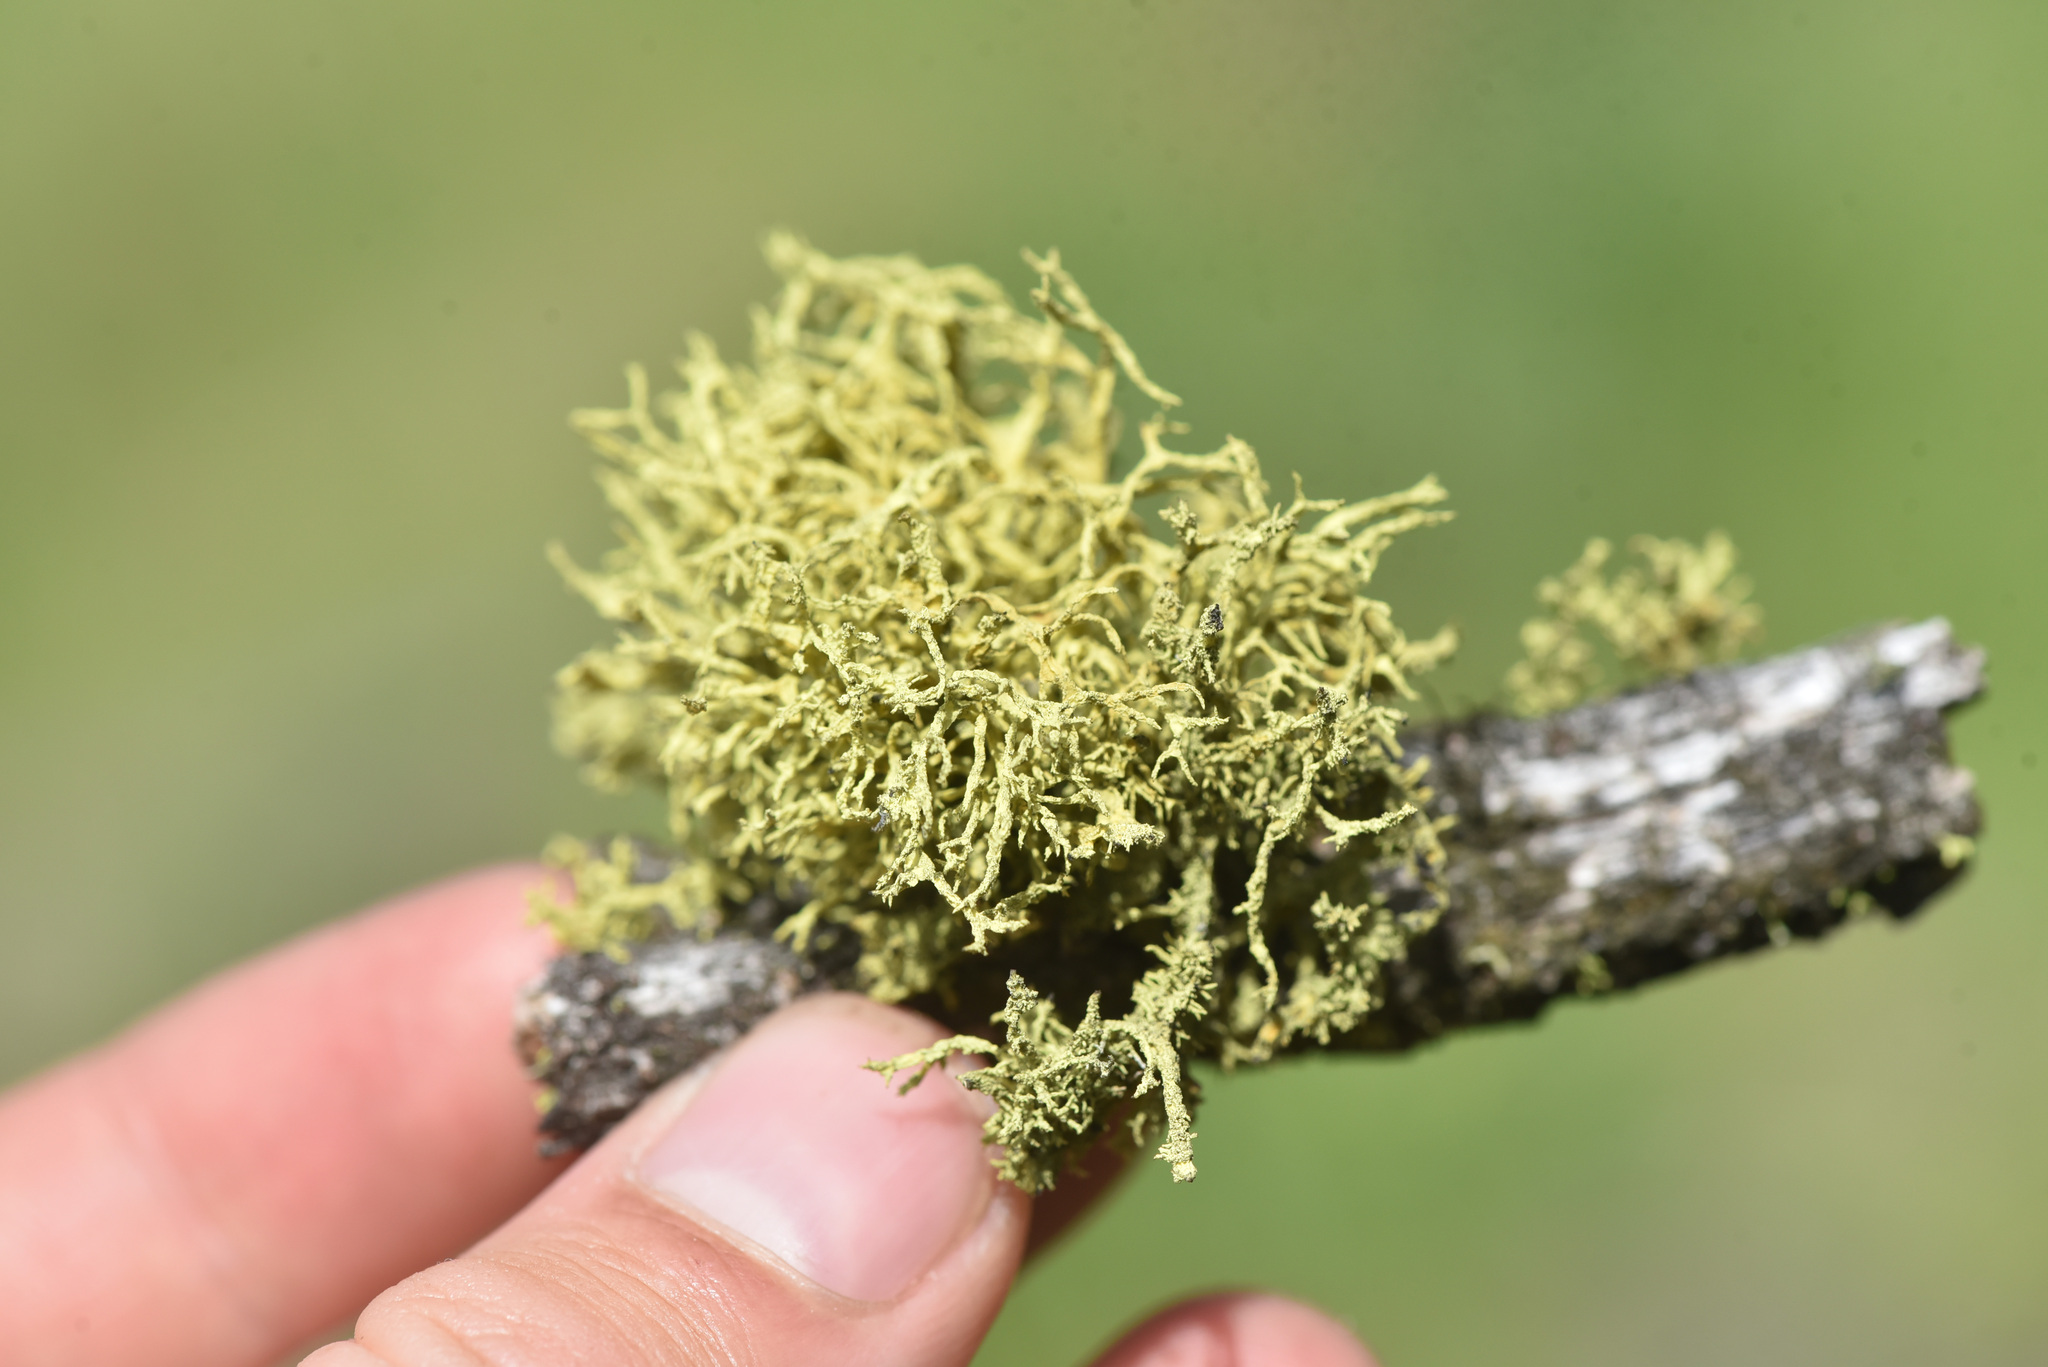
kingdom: Fungi
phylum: Ascomycota
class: Lecanoromycetes
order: Lecanorales
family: Parmeliaceae
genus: Letharia
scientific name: Letharia vulpina
